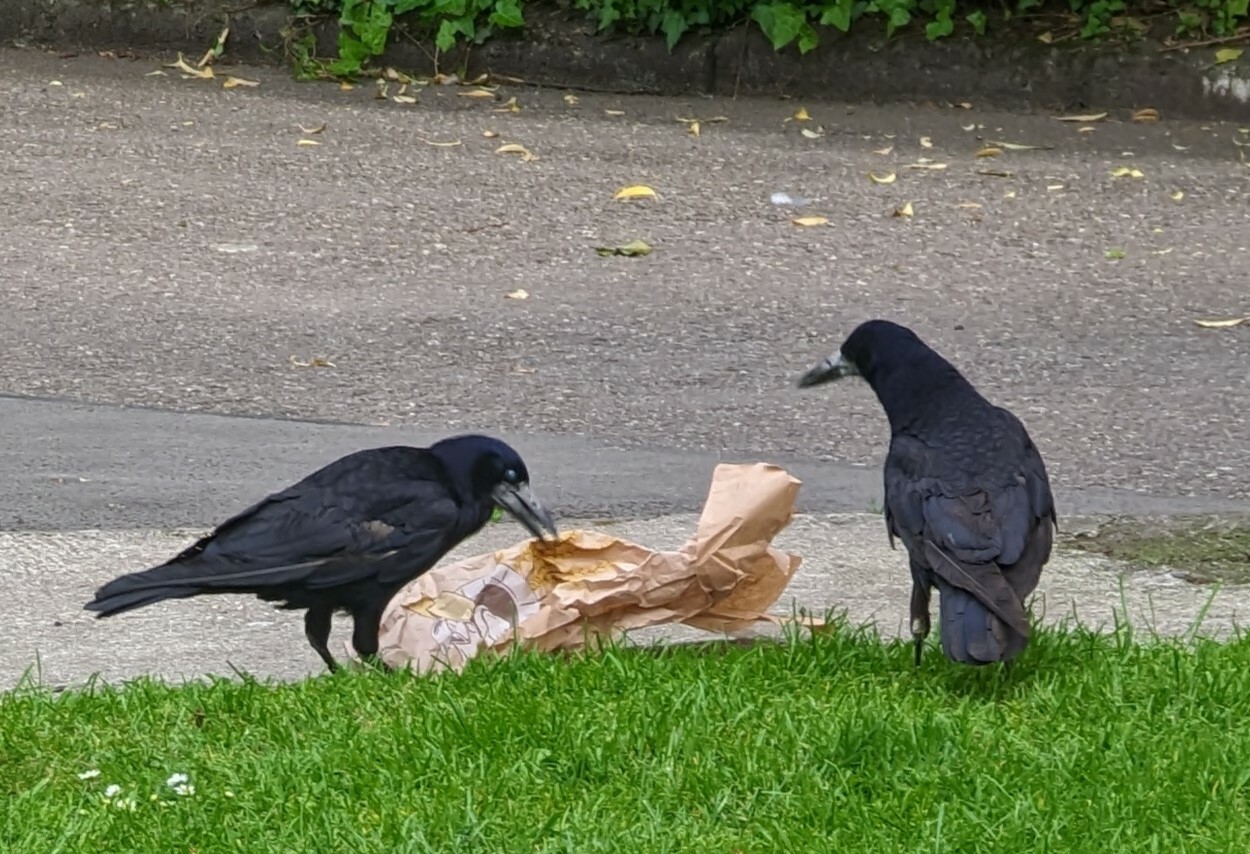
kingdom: Animalia
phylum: Chordata
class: Aves
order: Passeriformes
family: Corvidae
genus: Corvus
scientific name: Corvus frugilegus
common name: Rook
